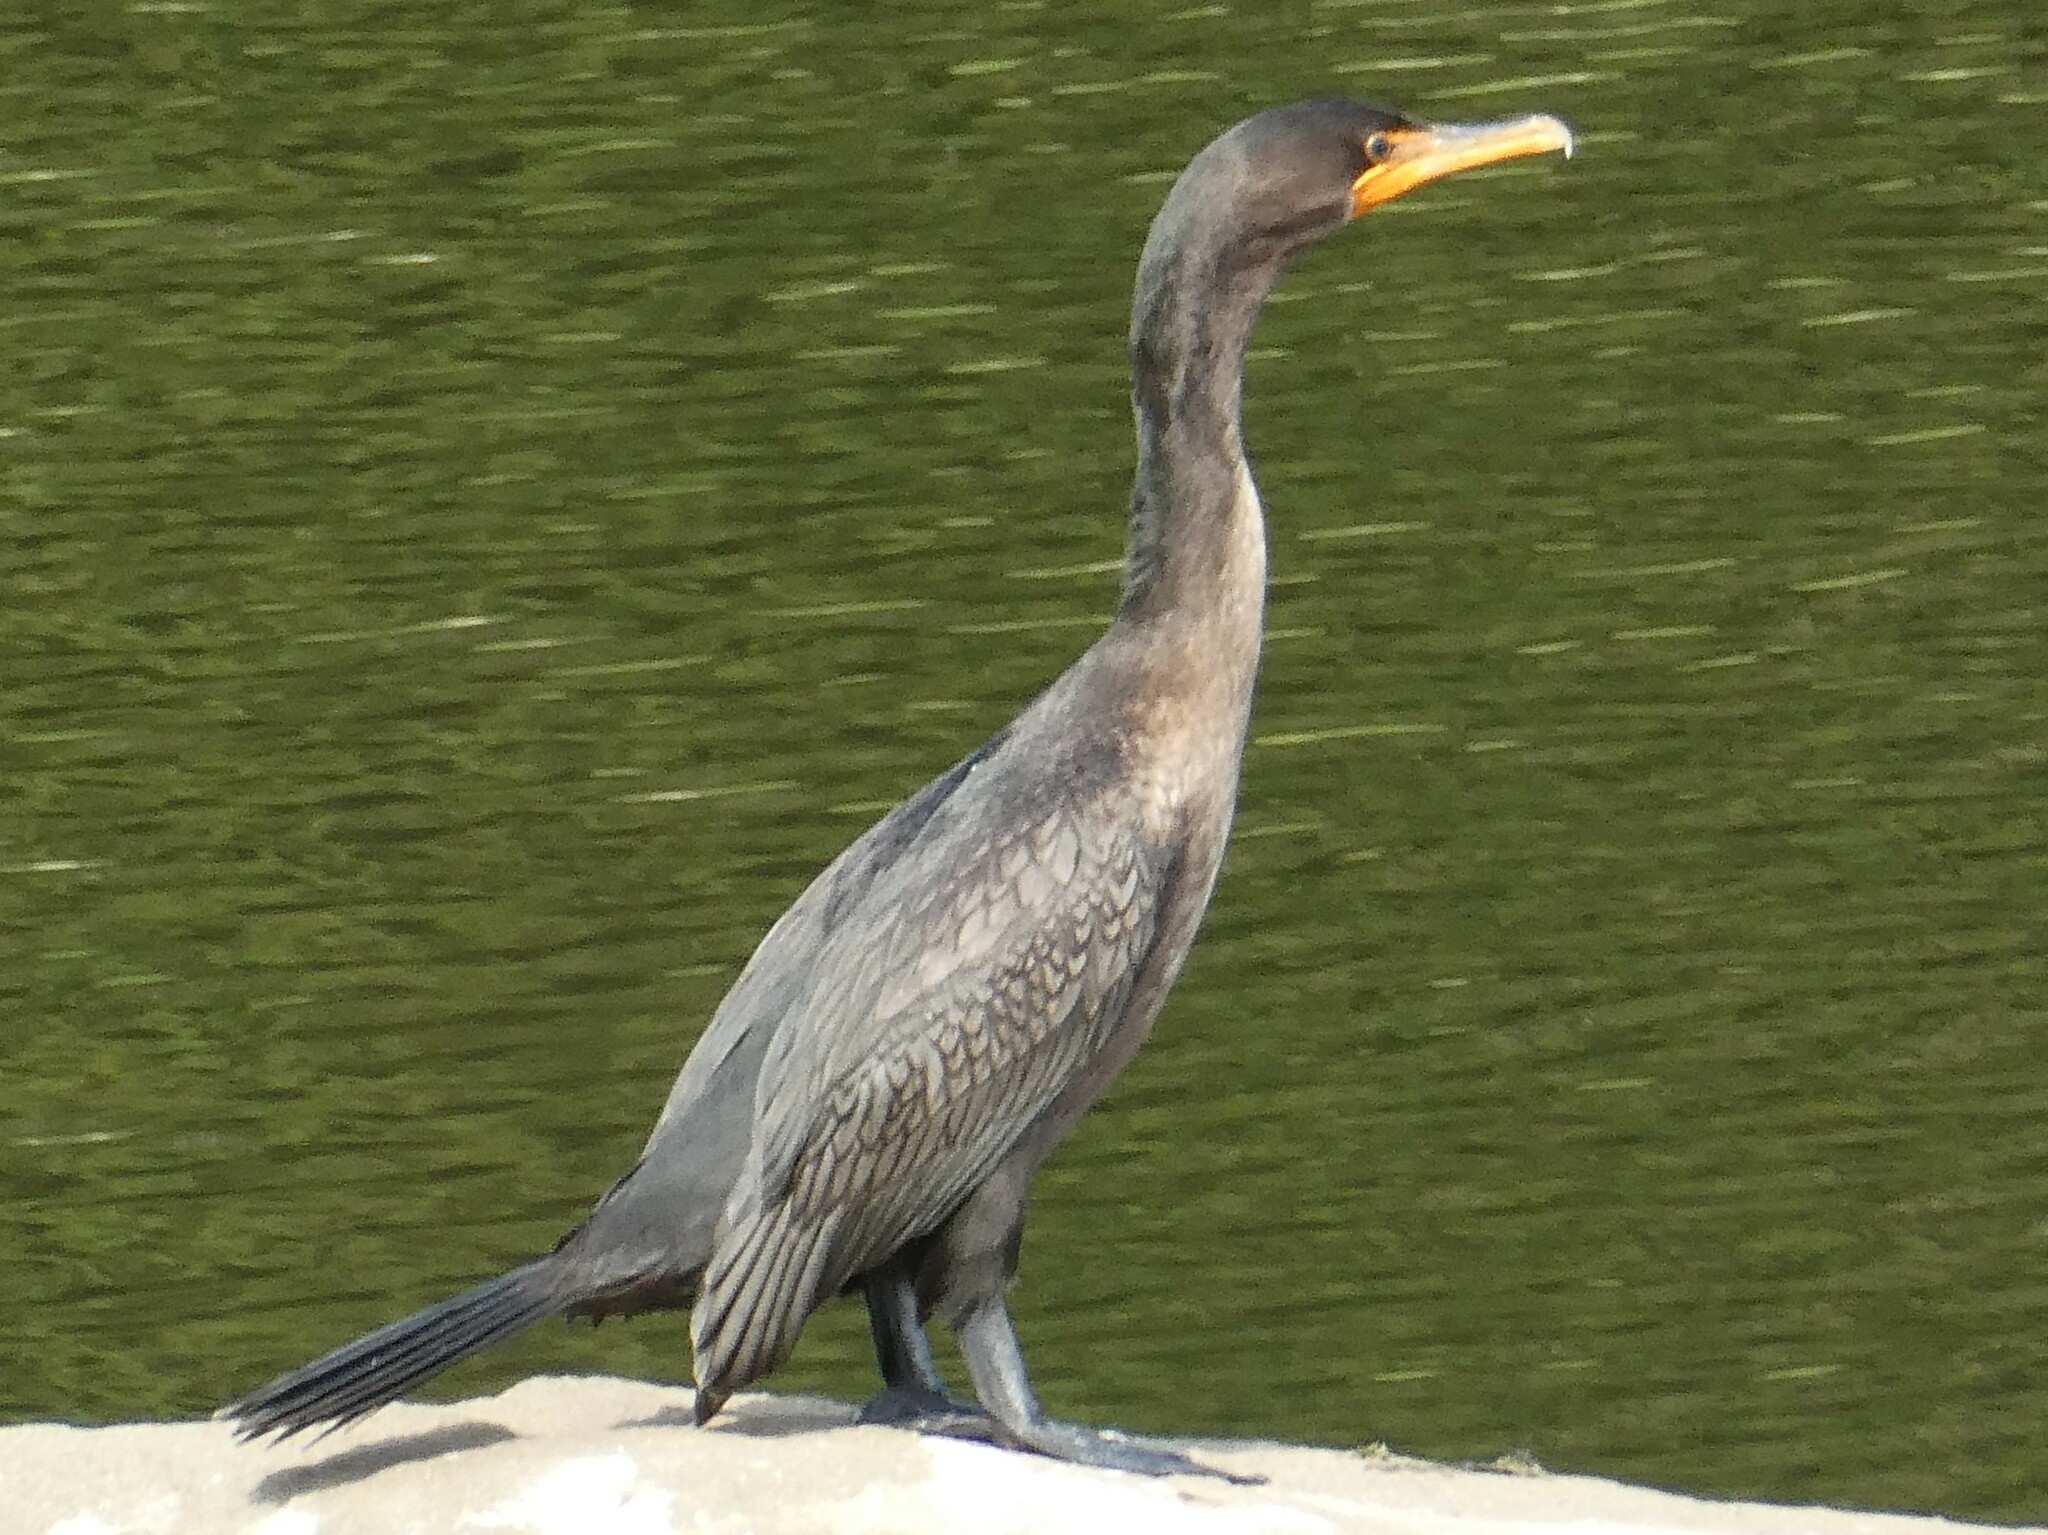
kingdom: Animalia
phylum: Chordata
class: Aves
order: Suliformes
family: Phalacrocoracidae
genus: Phalacrocorax
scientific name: Phalacrocorax auritus
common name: Double-crested cormorant
